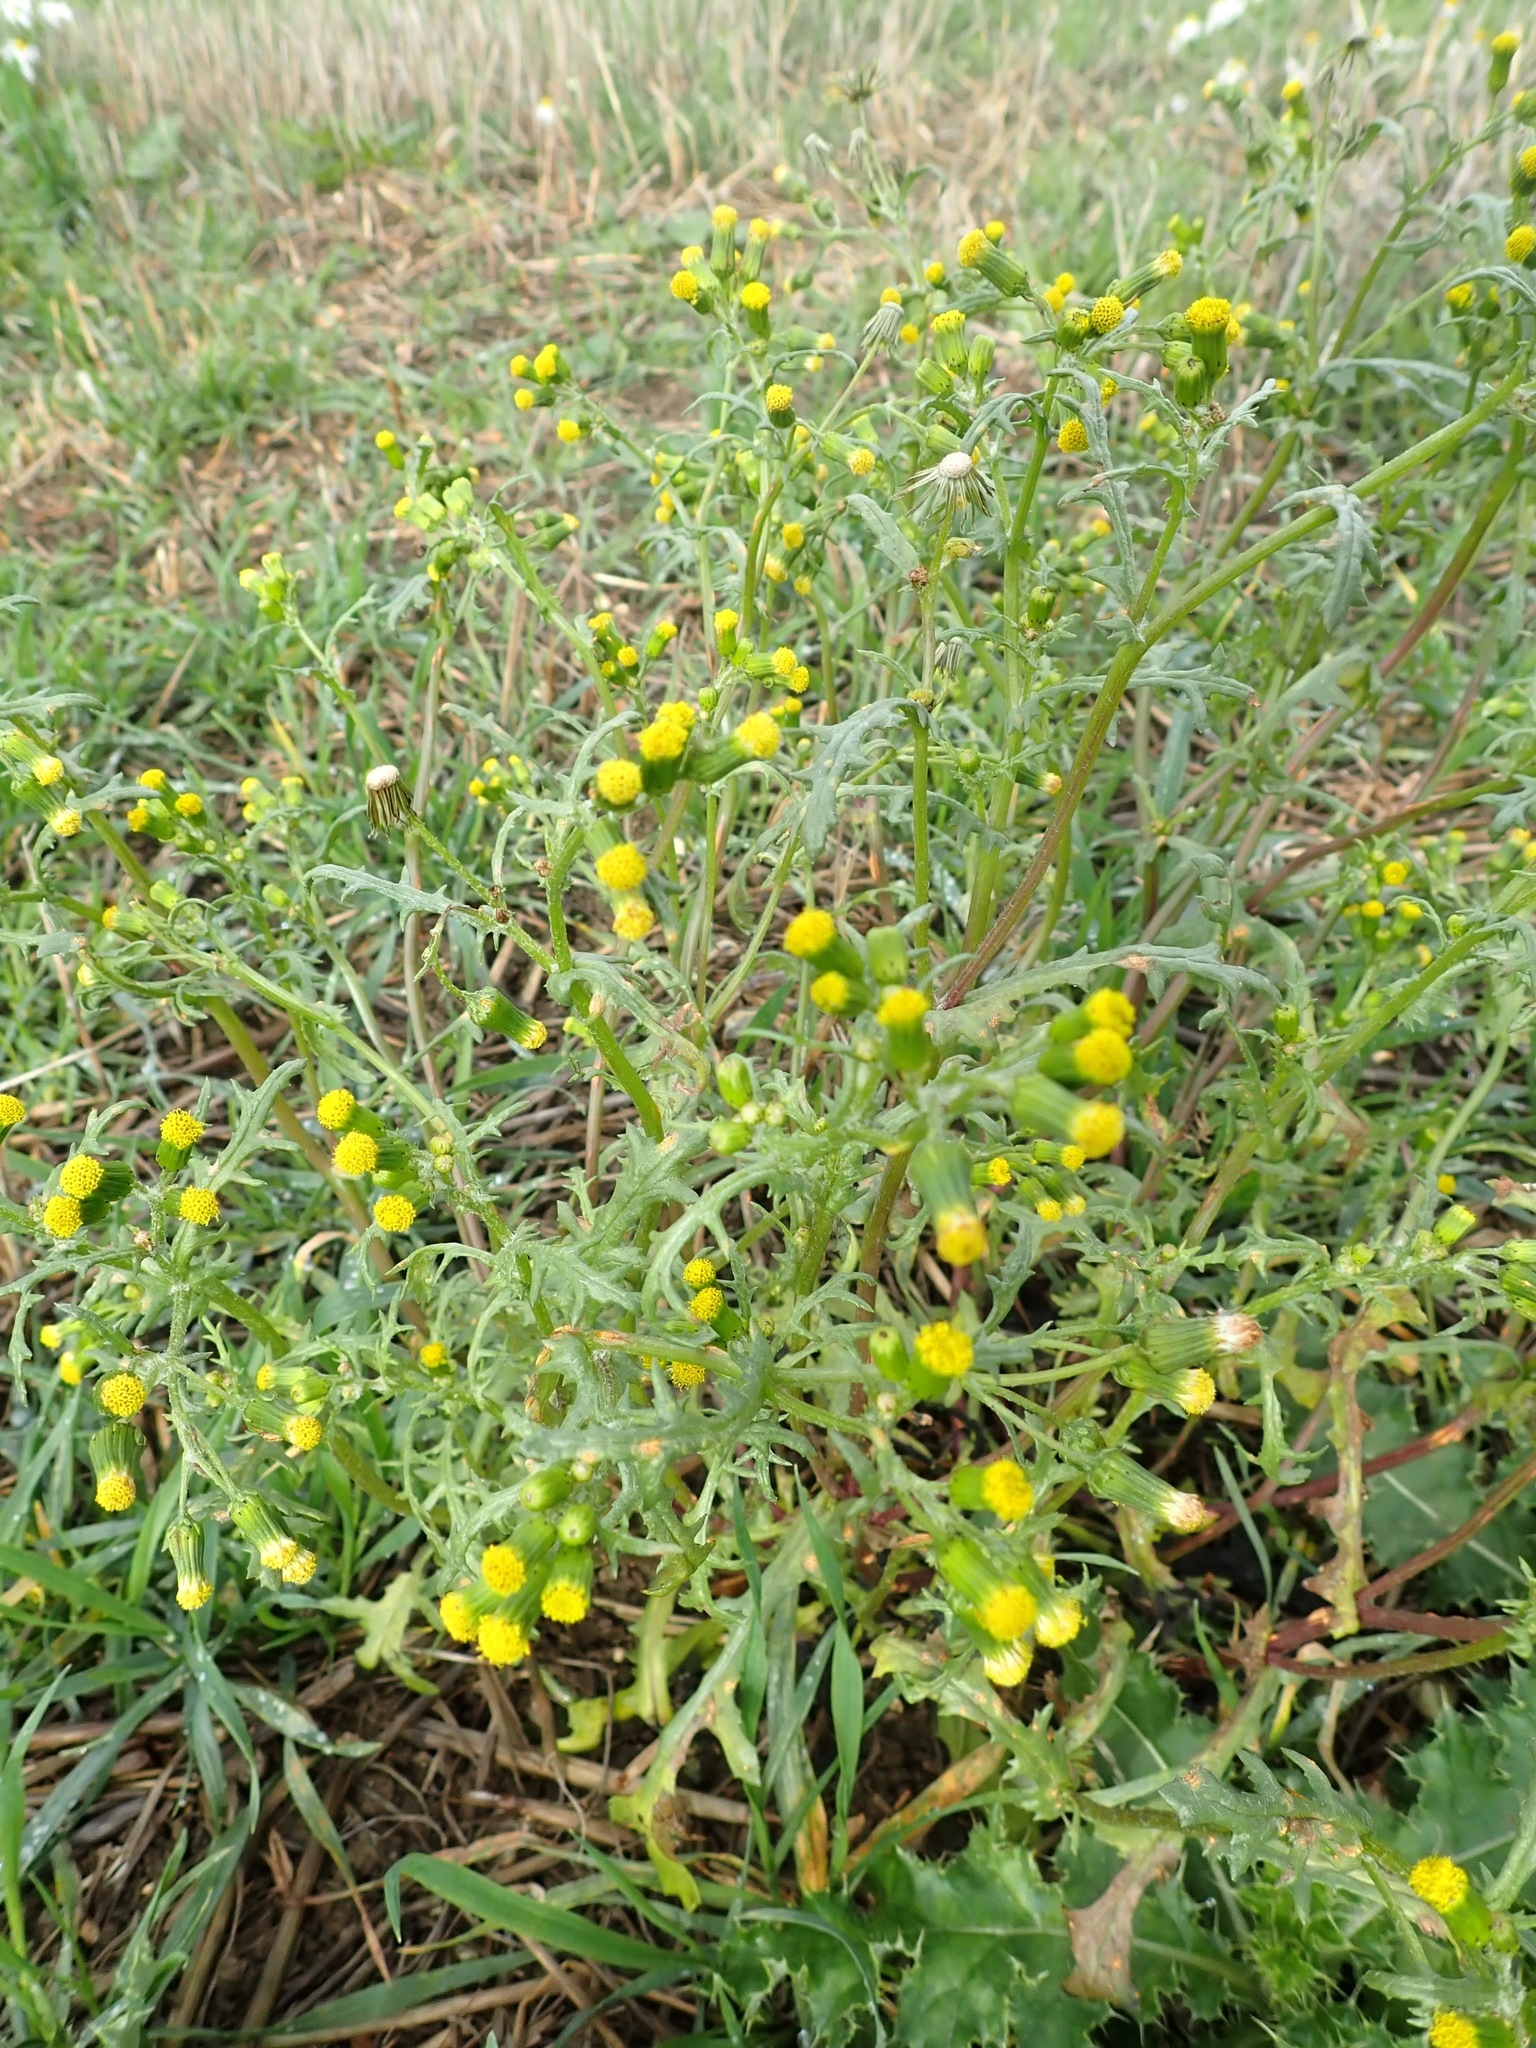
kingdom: Plantae
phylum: Tracheophyta
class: Magnoliopsida
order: Asterales
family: Asteraceae
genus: Senecio
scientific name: Senecio vulgaris
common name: Old-man-in-the-spring
